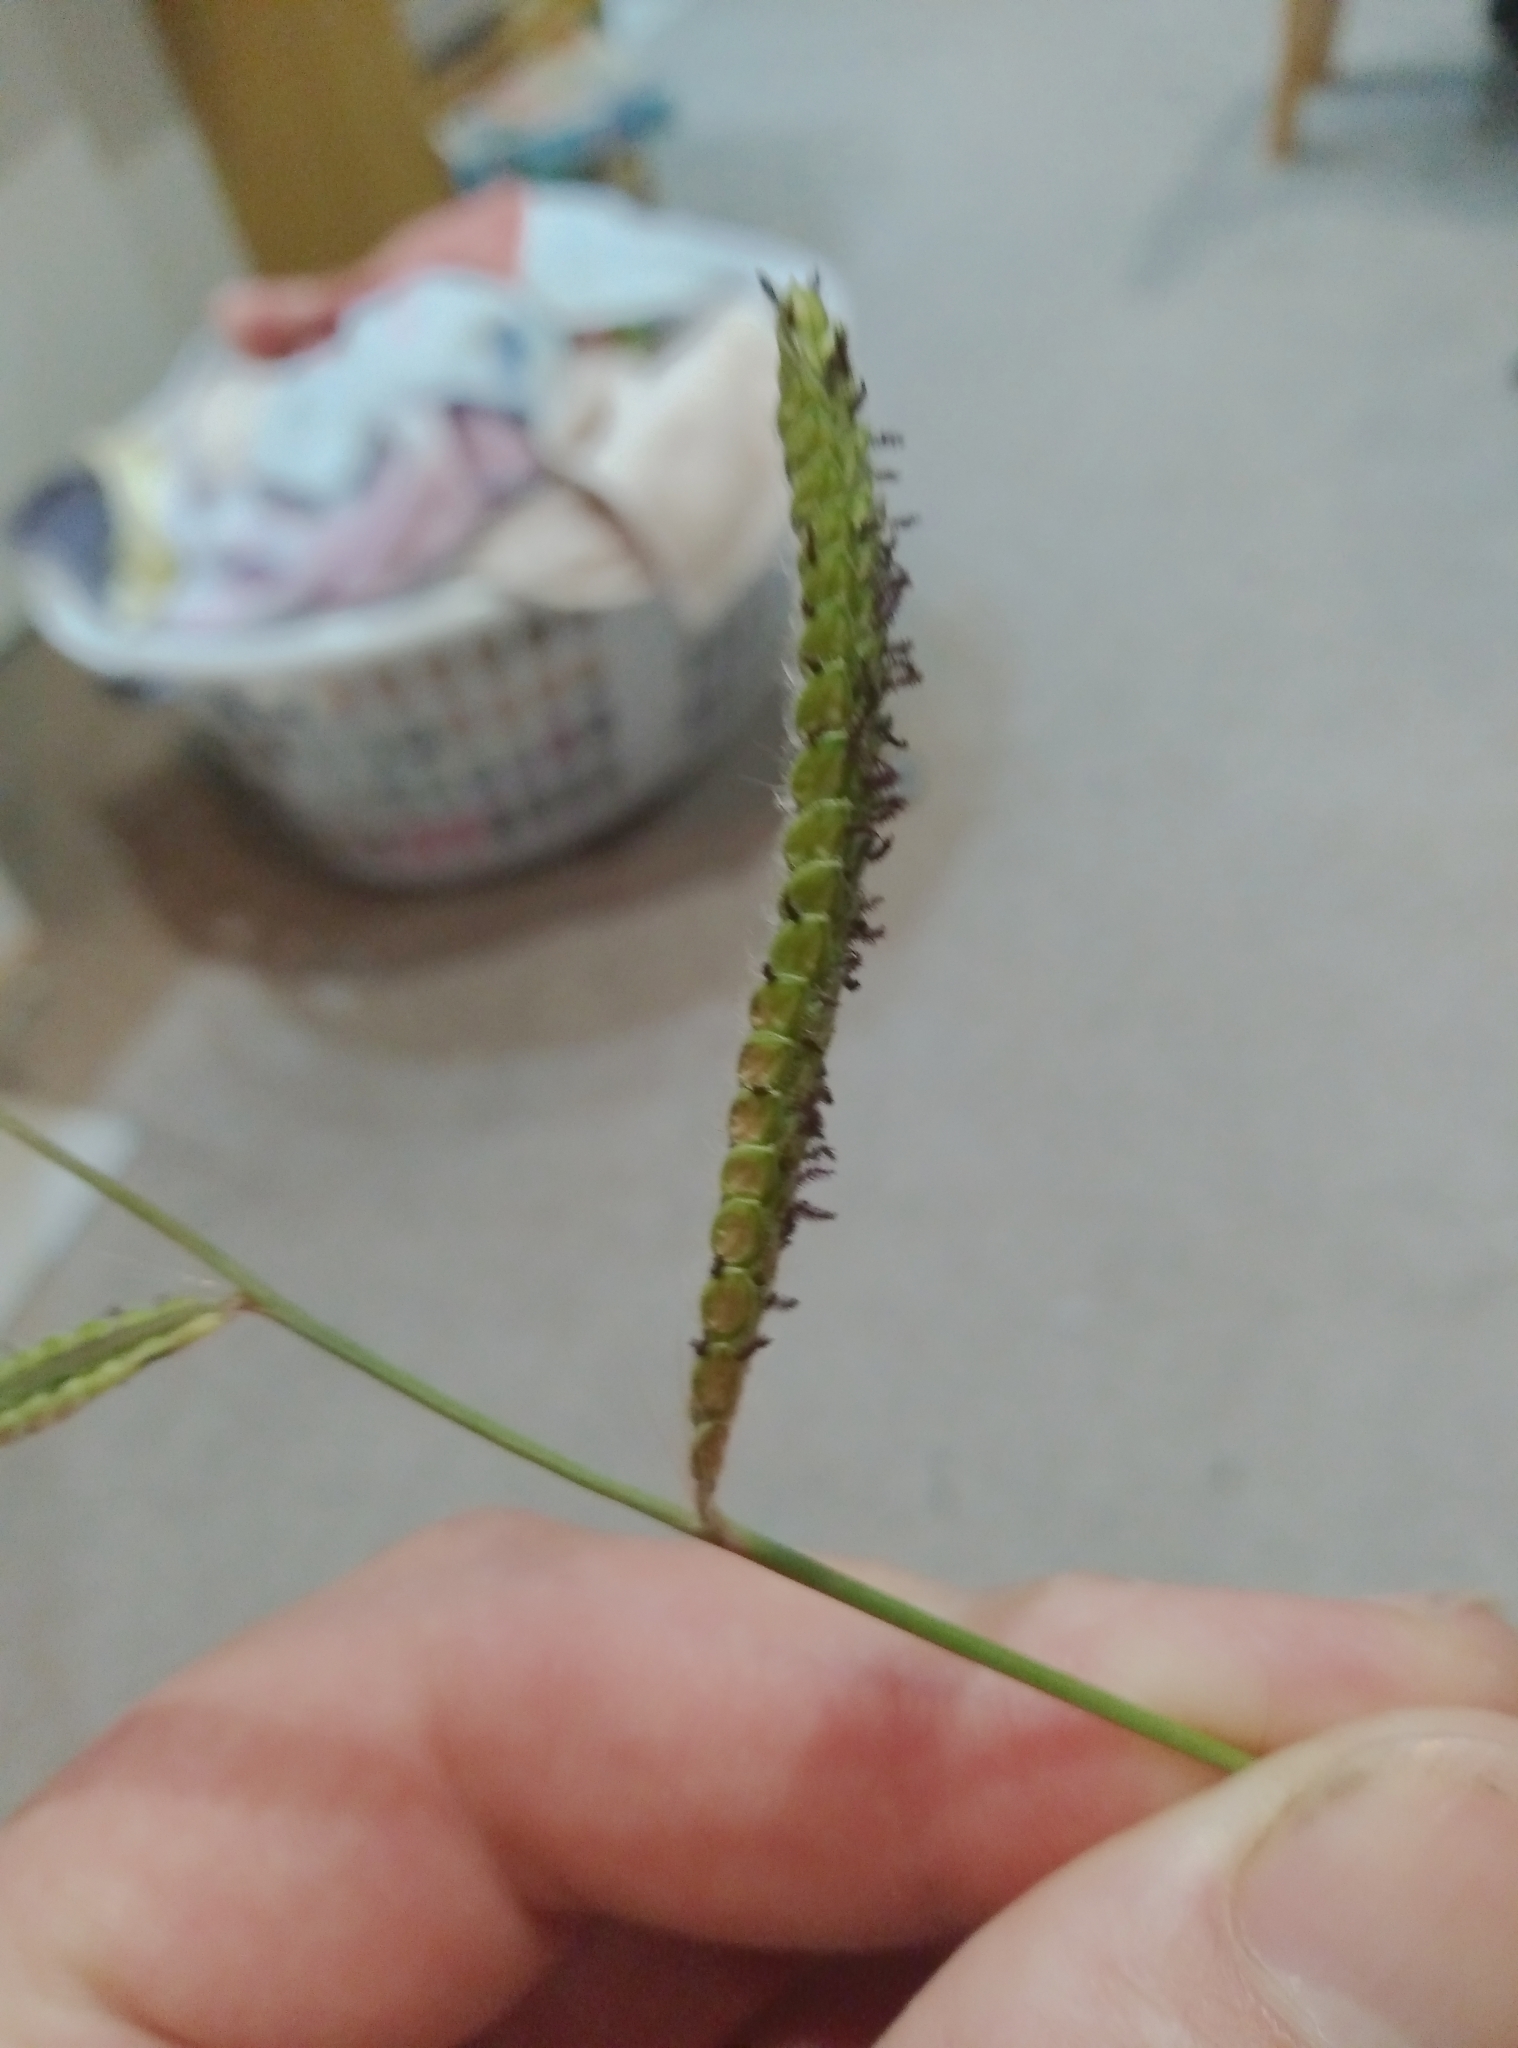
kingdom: Plantae
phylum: Tracheophyta
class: Liliopsida
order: Poales
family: Poaceae
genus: Paspalum
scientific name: Paspalum dilatatum
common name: Dallisgrass
